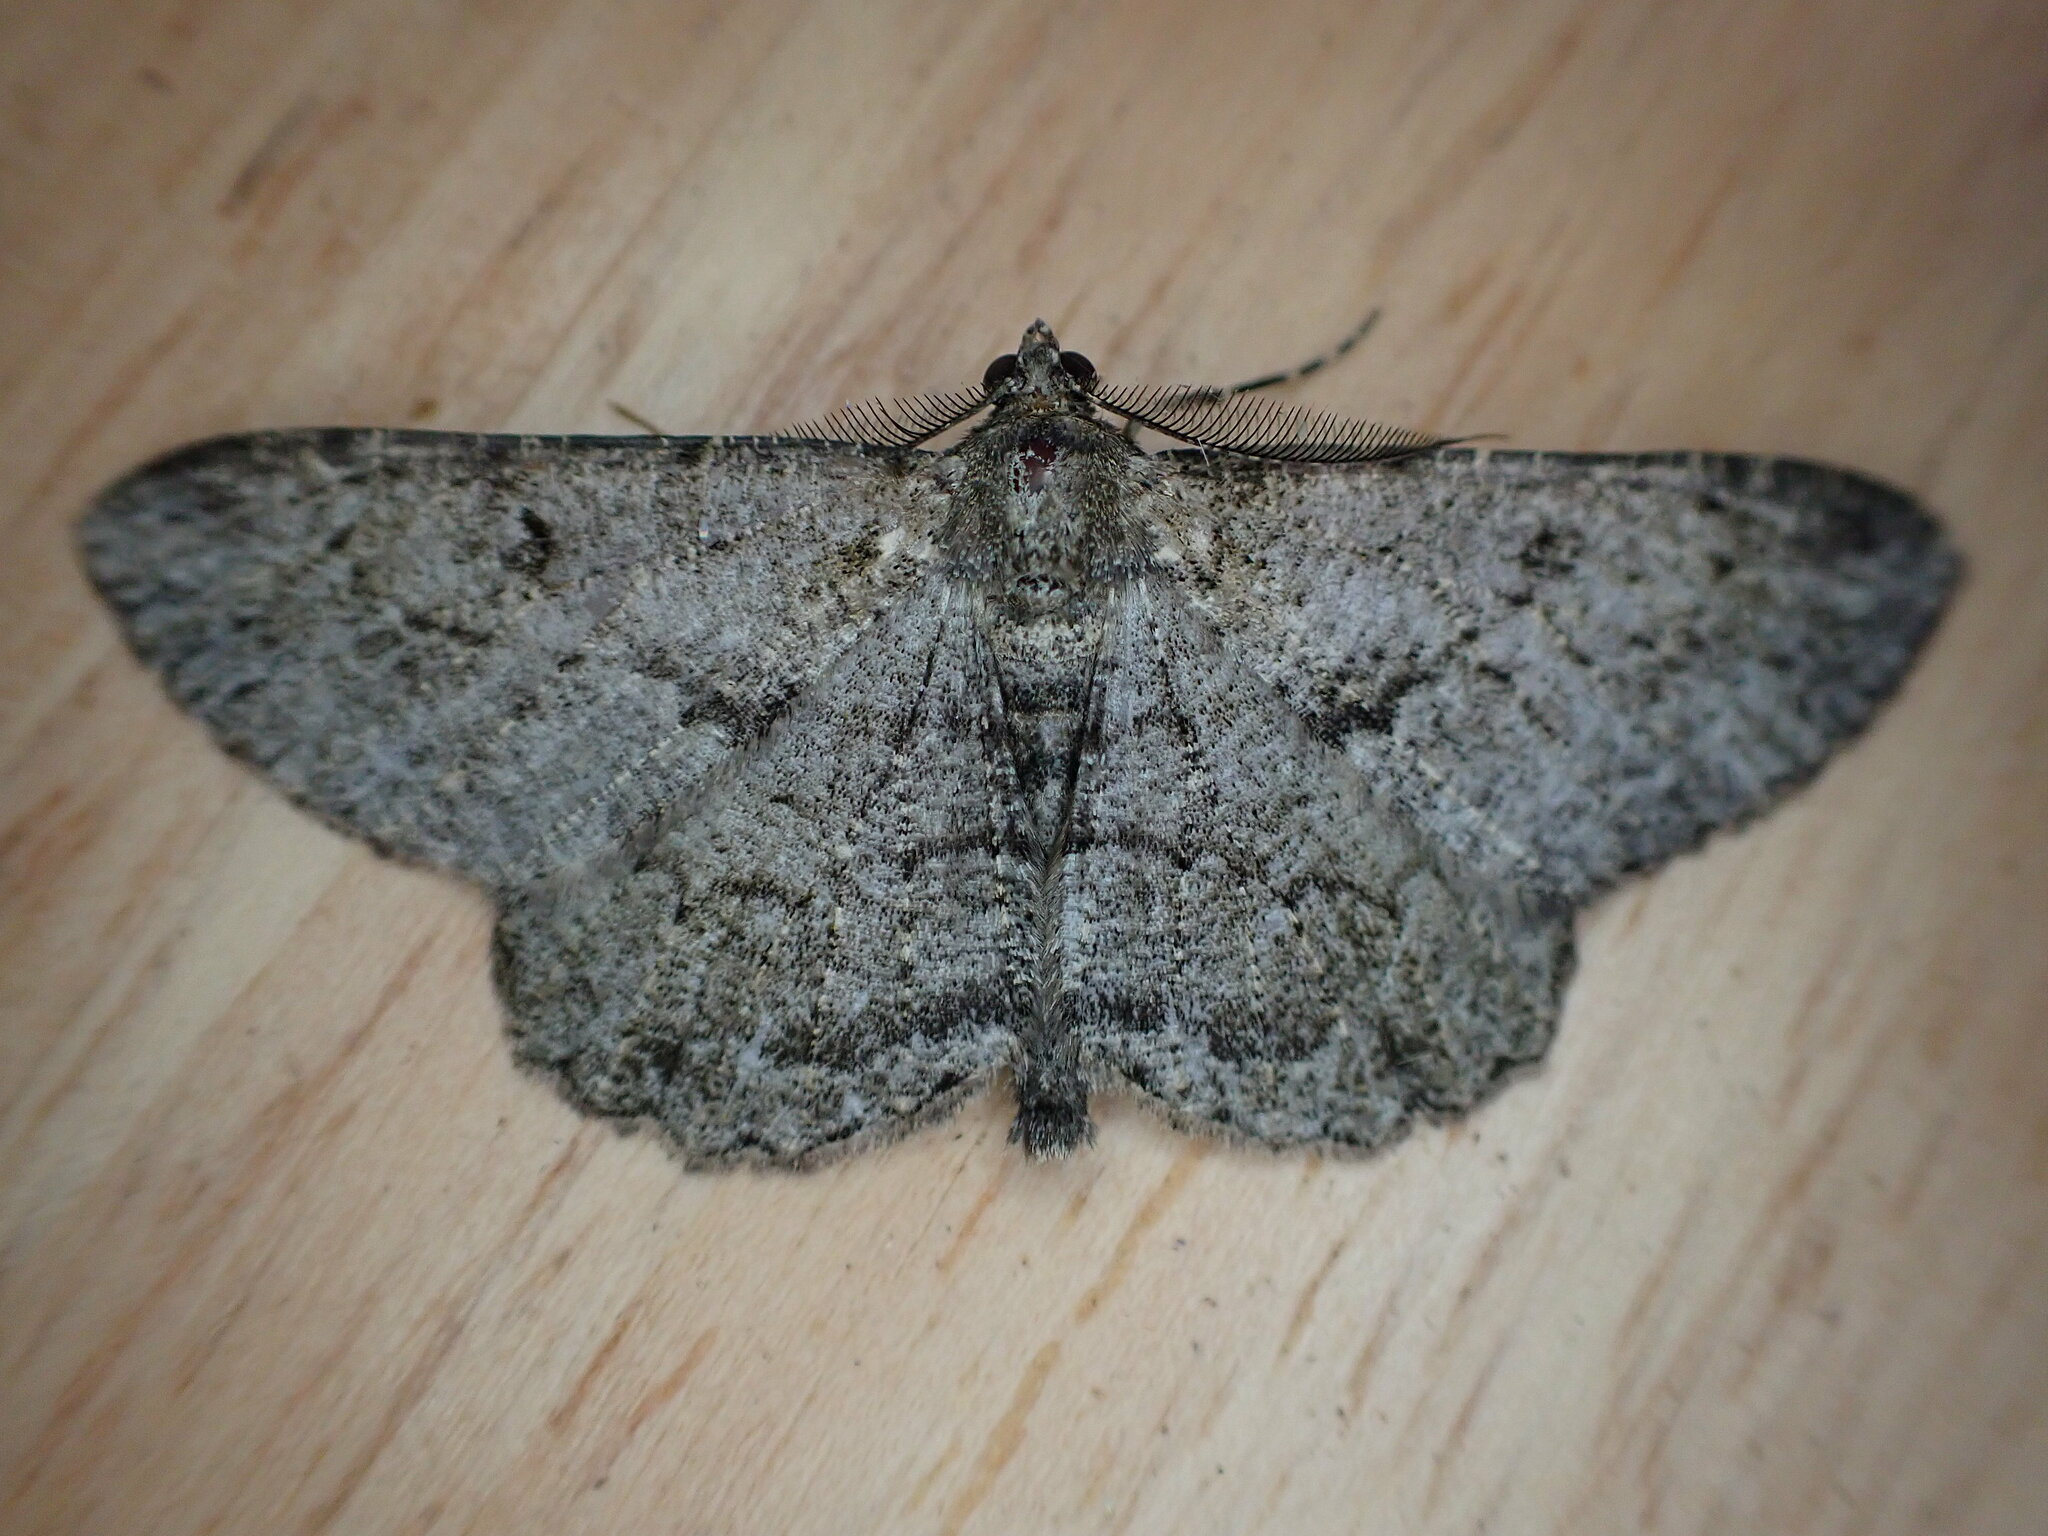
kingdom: Animalia
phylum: Arthropoda
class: Insecta
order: Lepidoptera
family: Geometridae
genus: Peribatodes
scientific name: Peribatodes rhomboidaria
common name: Willow beauty
